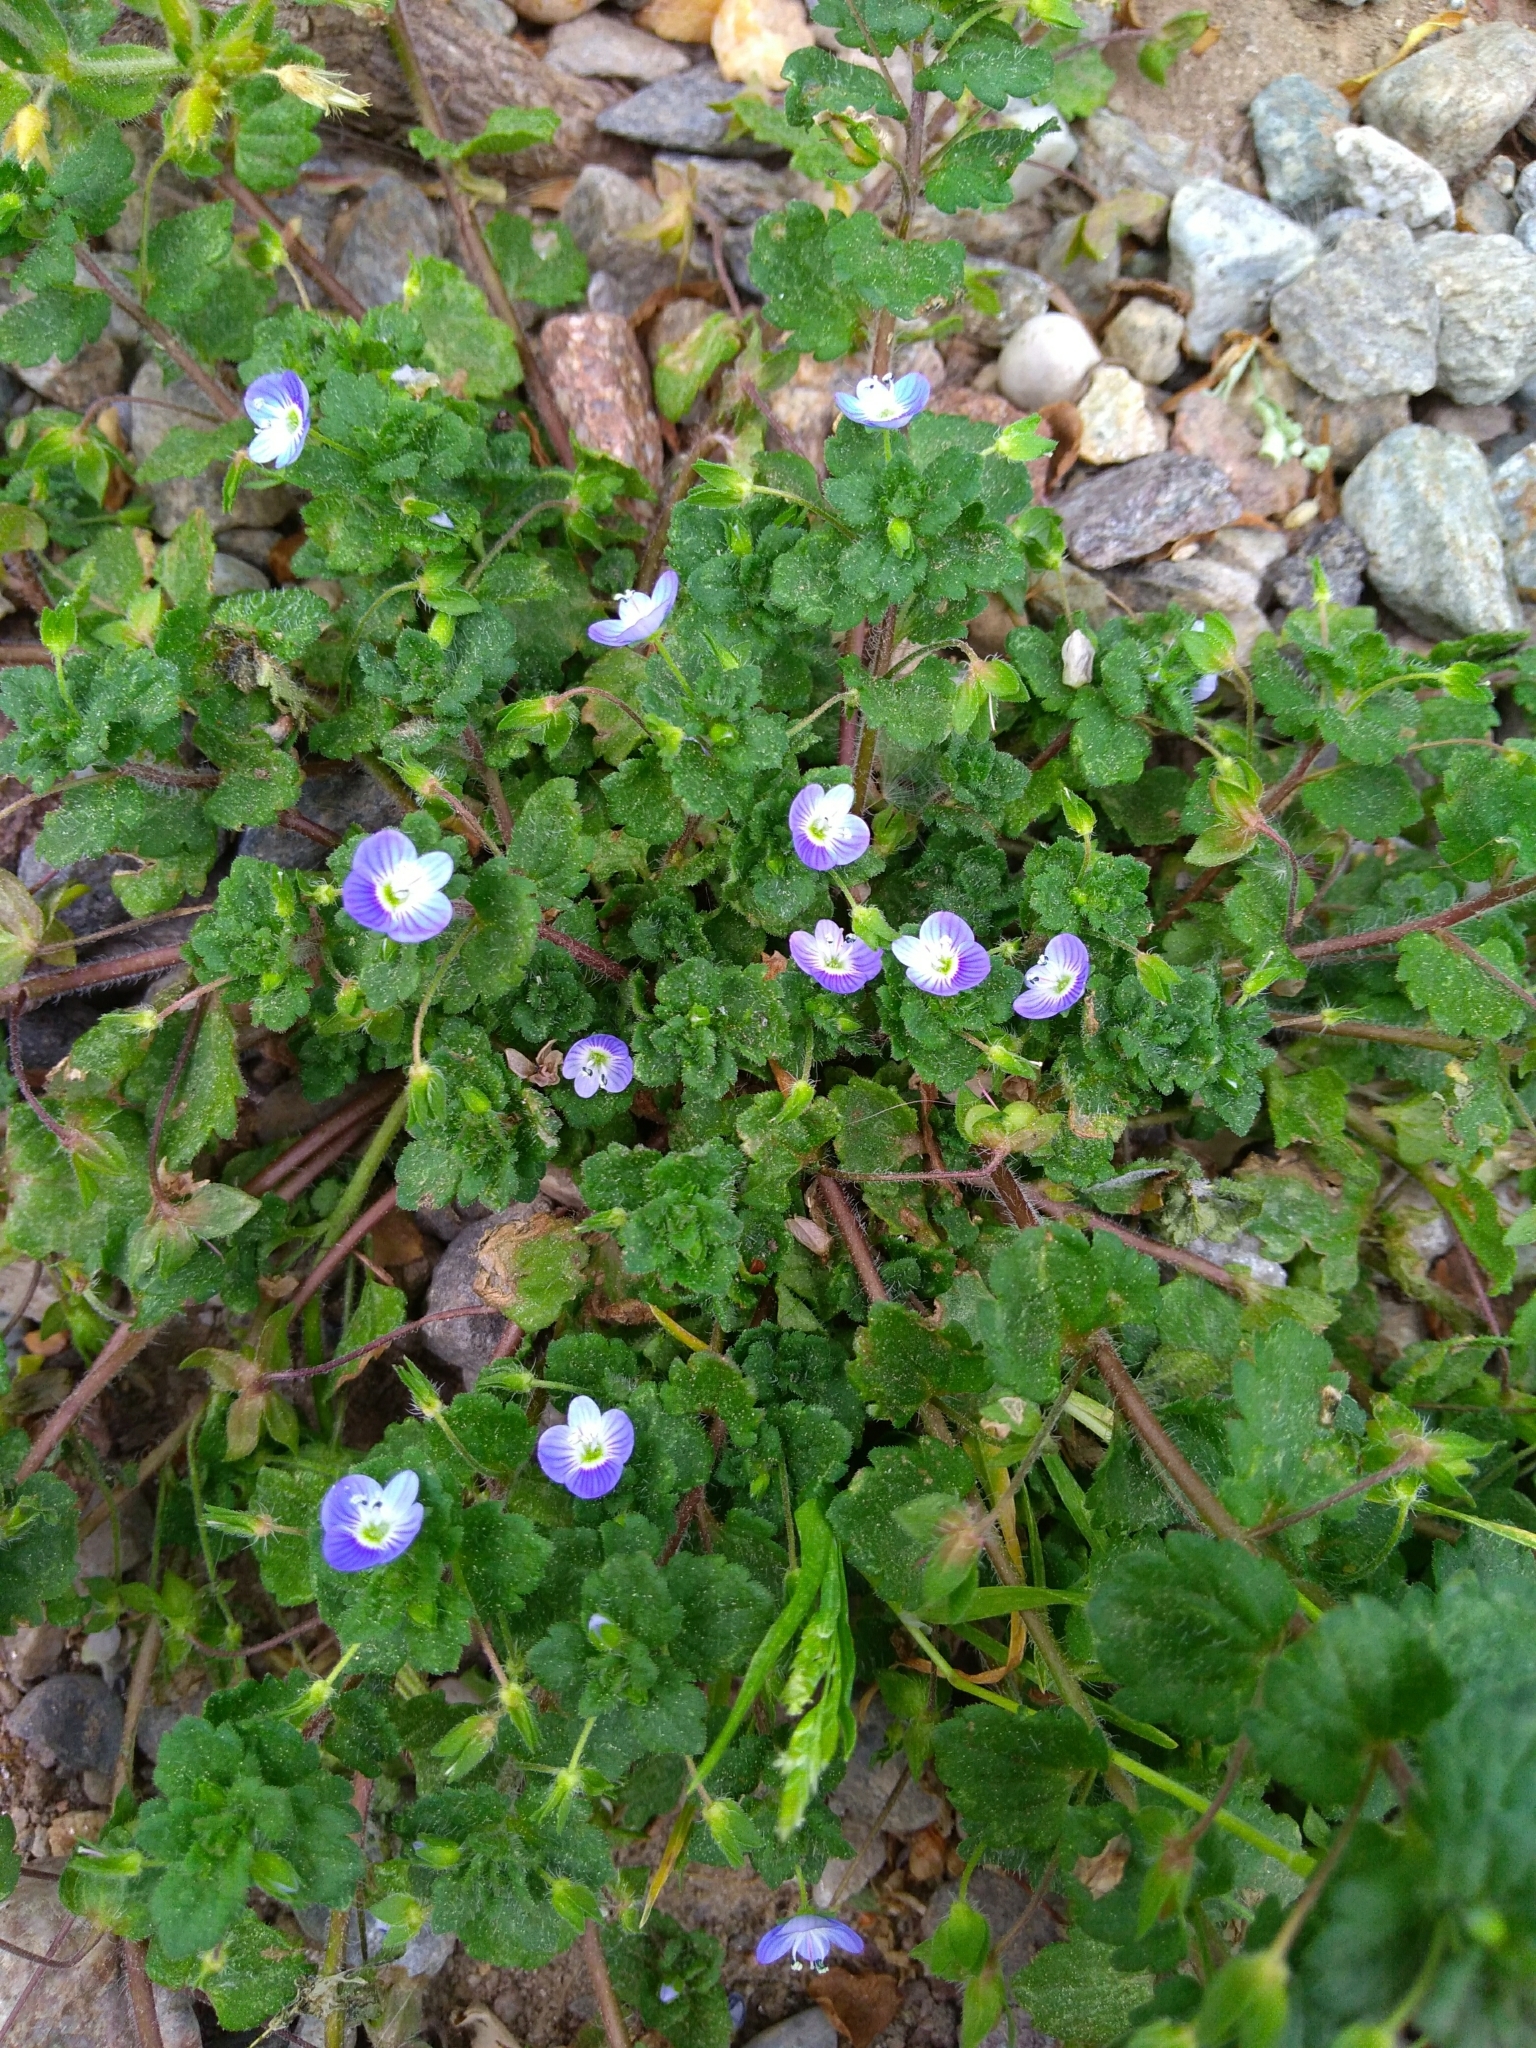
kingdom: Plantae
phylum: Tracheophyta
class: Magnoliopsida
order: Lamiales
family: Plantaginaceae
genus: Veronica
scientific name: Veronica persica
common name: Common field-speedwell
